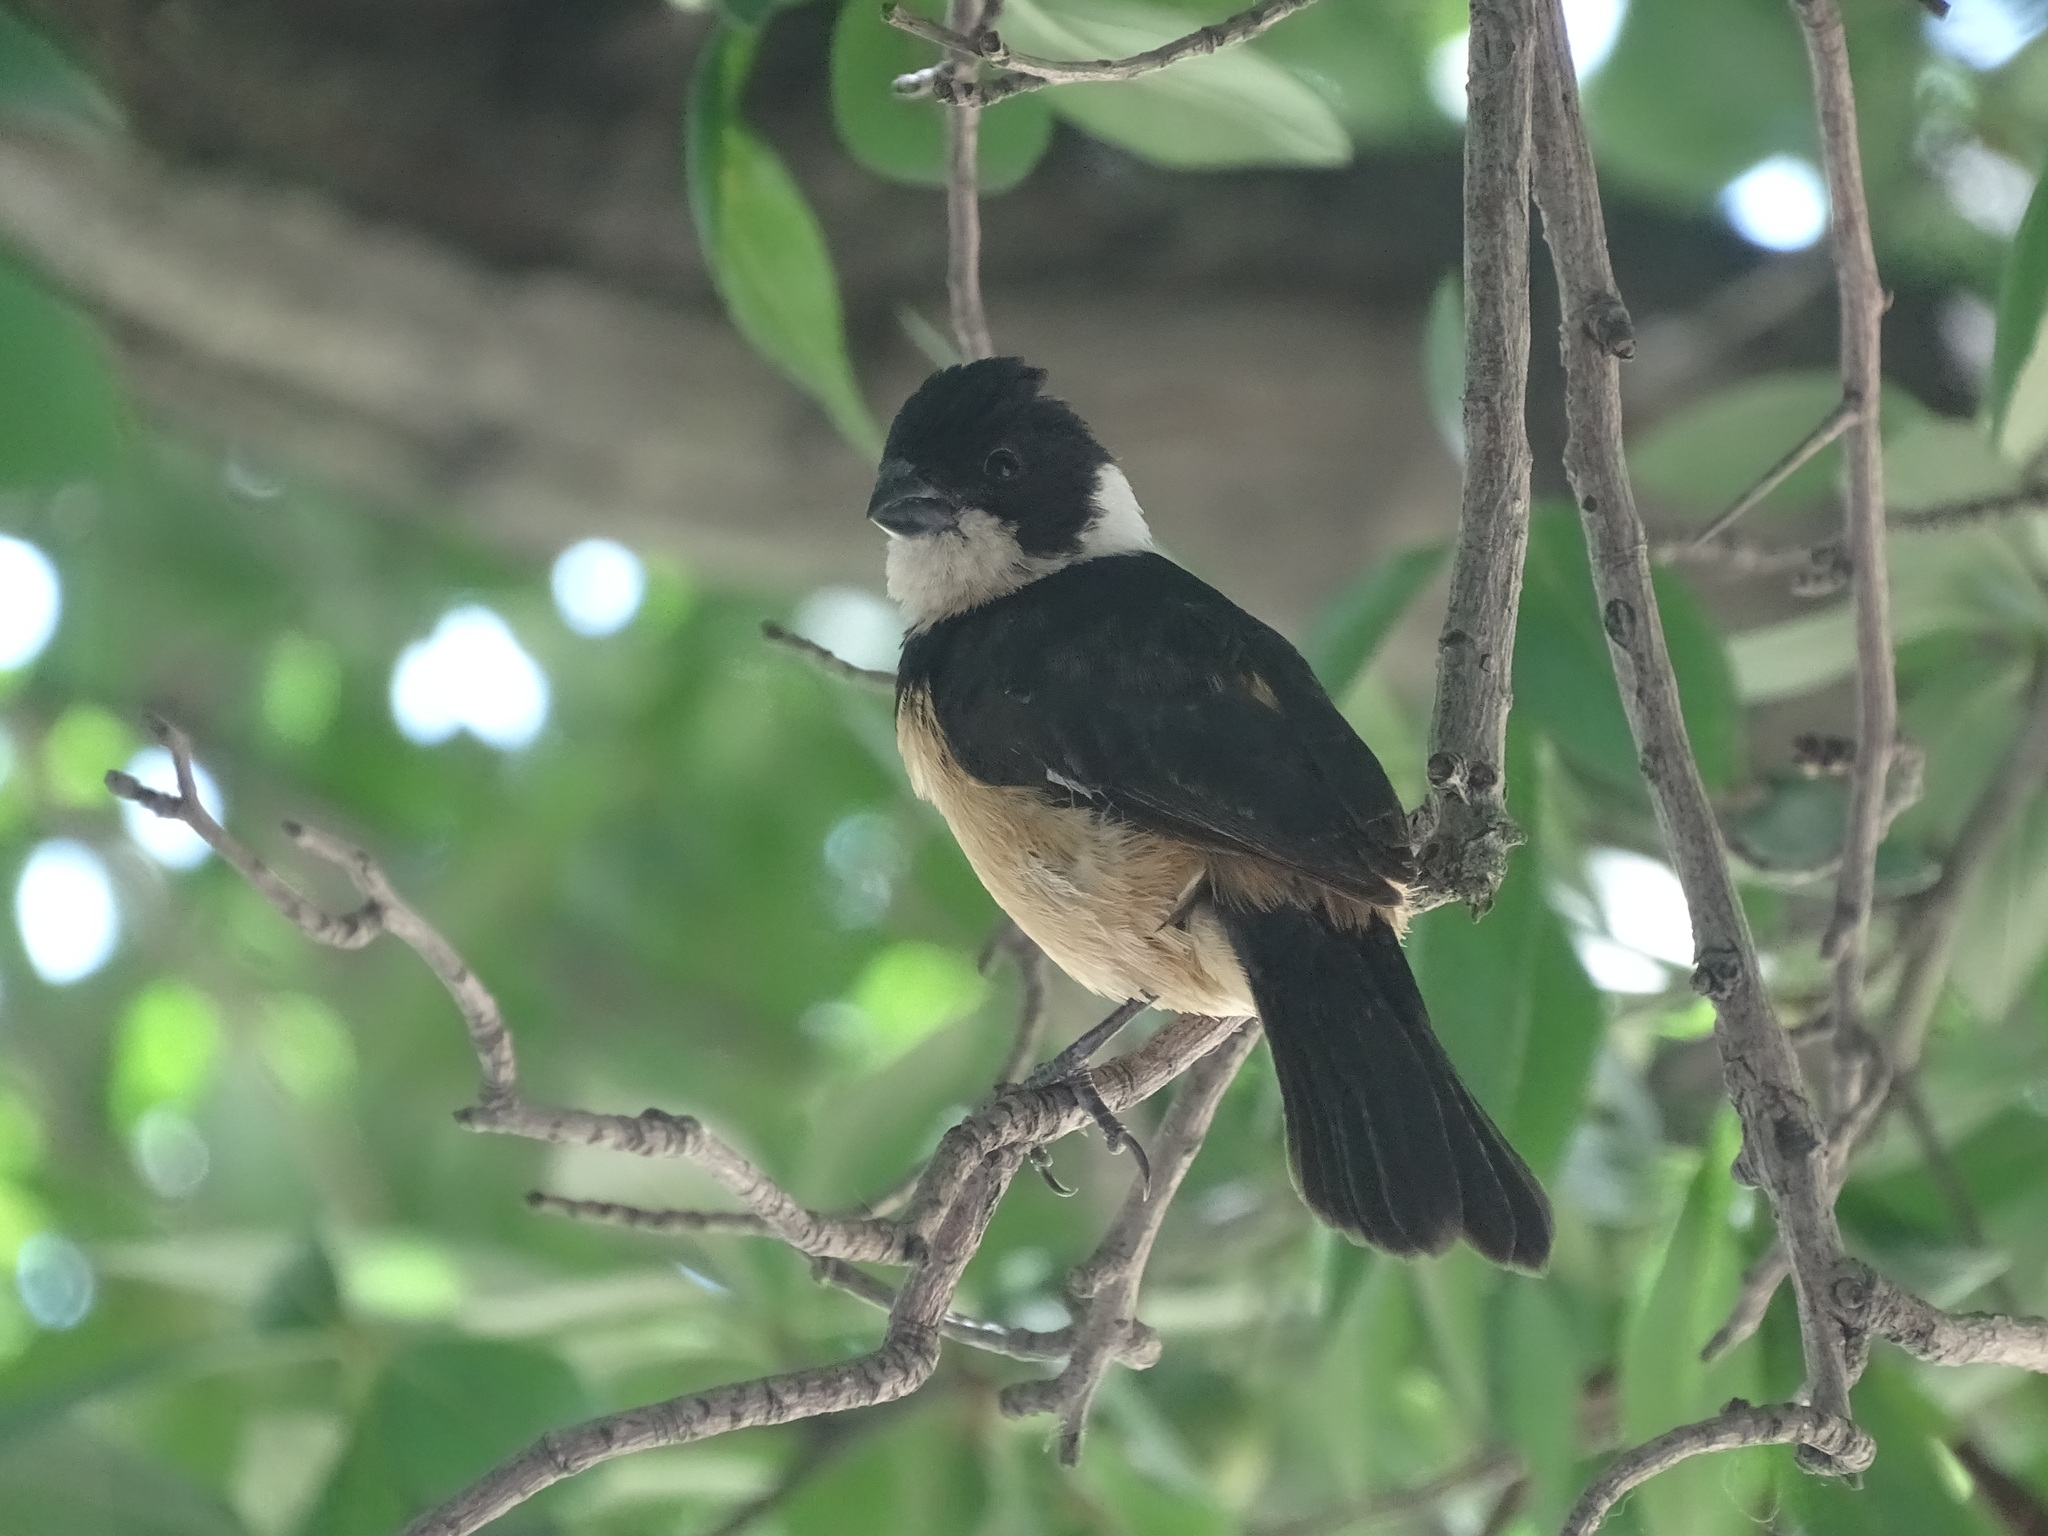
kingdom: Animalia
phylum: Chordata
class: Aves
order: Passeriformes
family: Thraupidae
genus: Sporophila
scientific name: Sporophila torqueola
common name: White-collared seedeater
